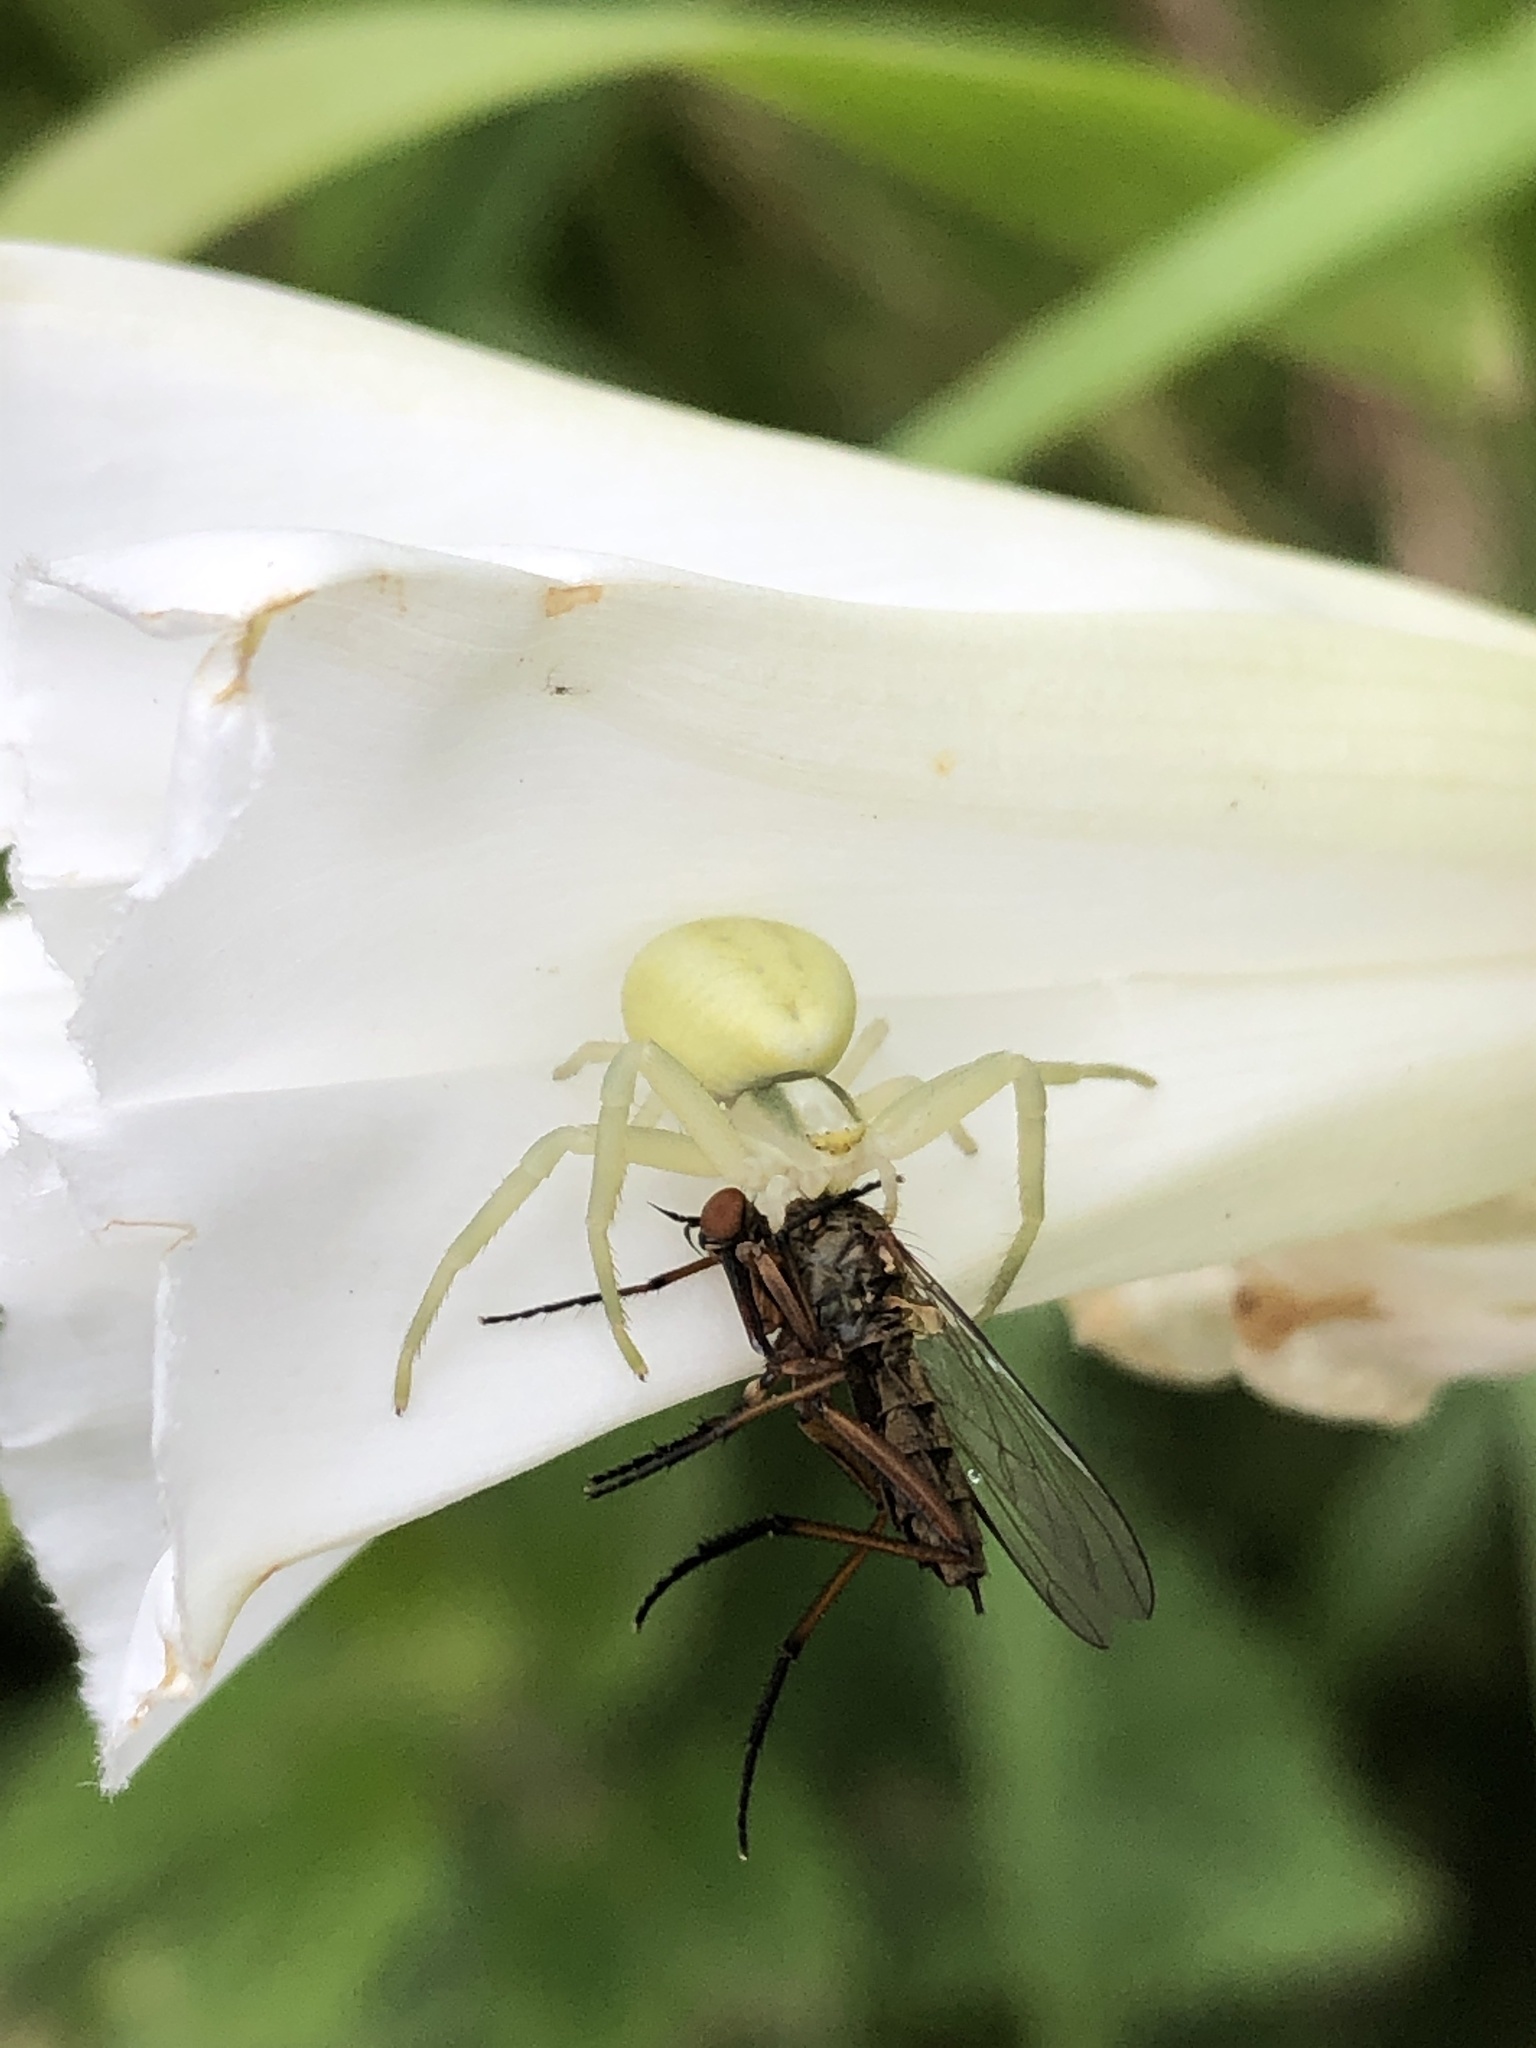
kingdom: Animalia
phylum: Arthropoda
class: Arachnida
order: Araneae
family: Thomisidae
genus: Misumena
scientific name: Misumena vatia
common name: Goldenrod crab spider
